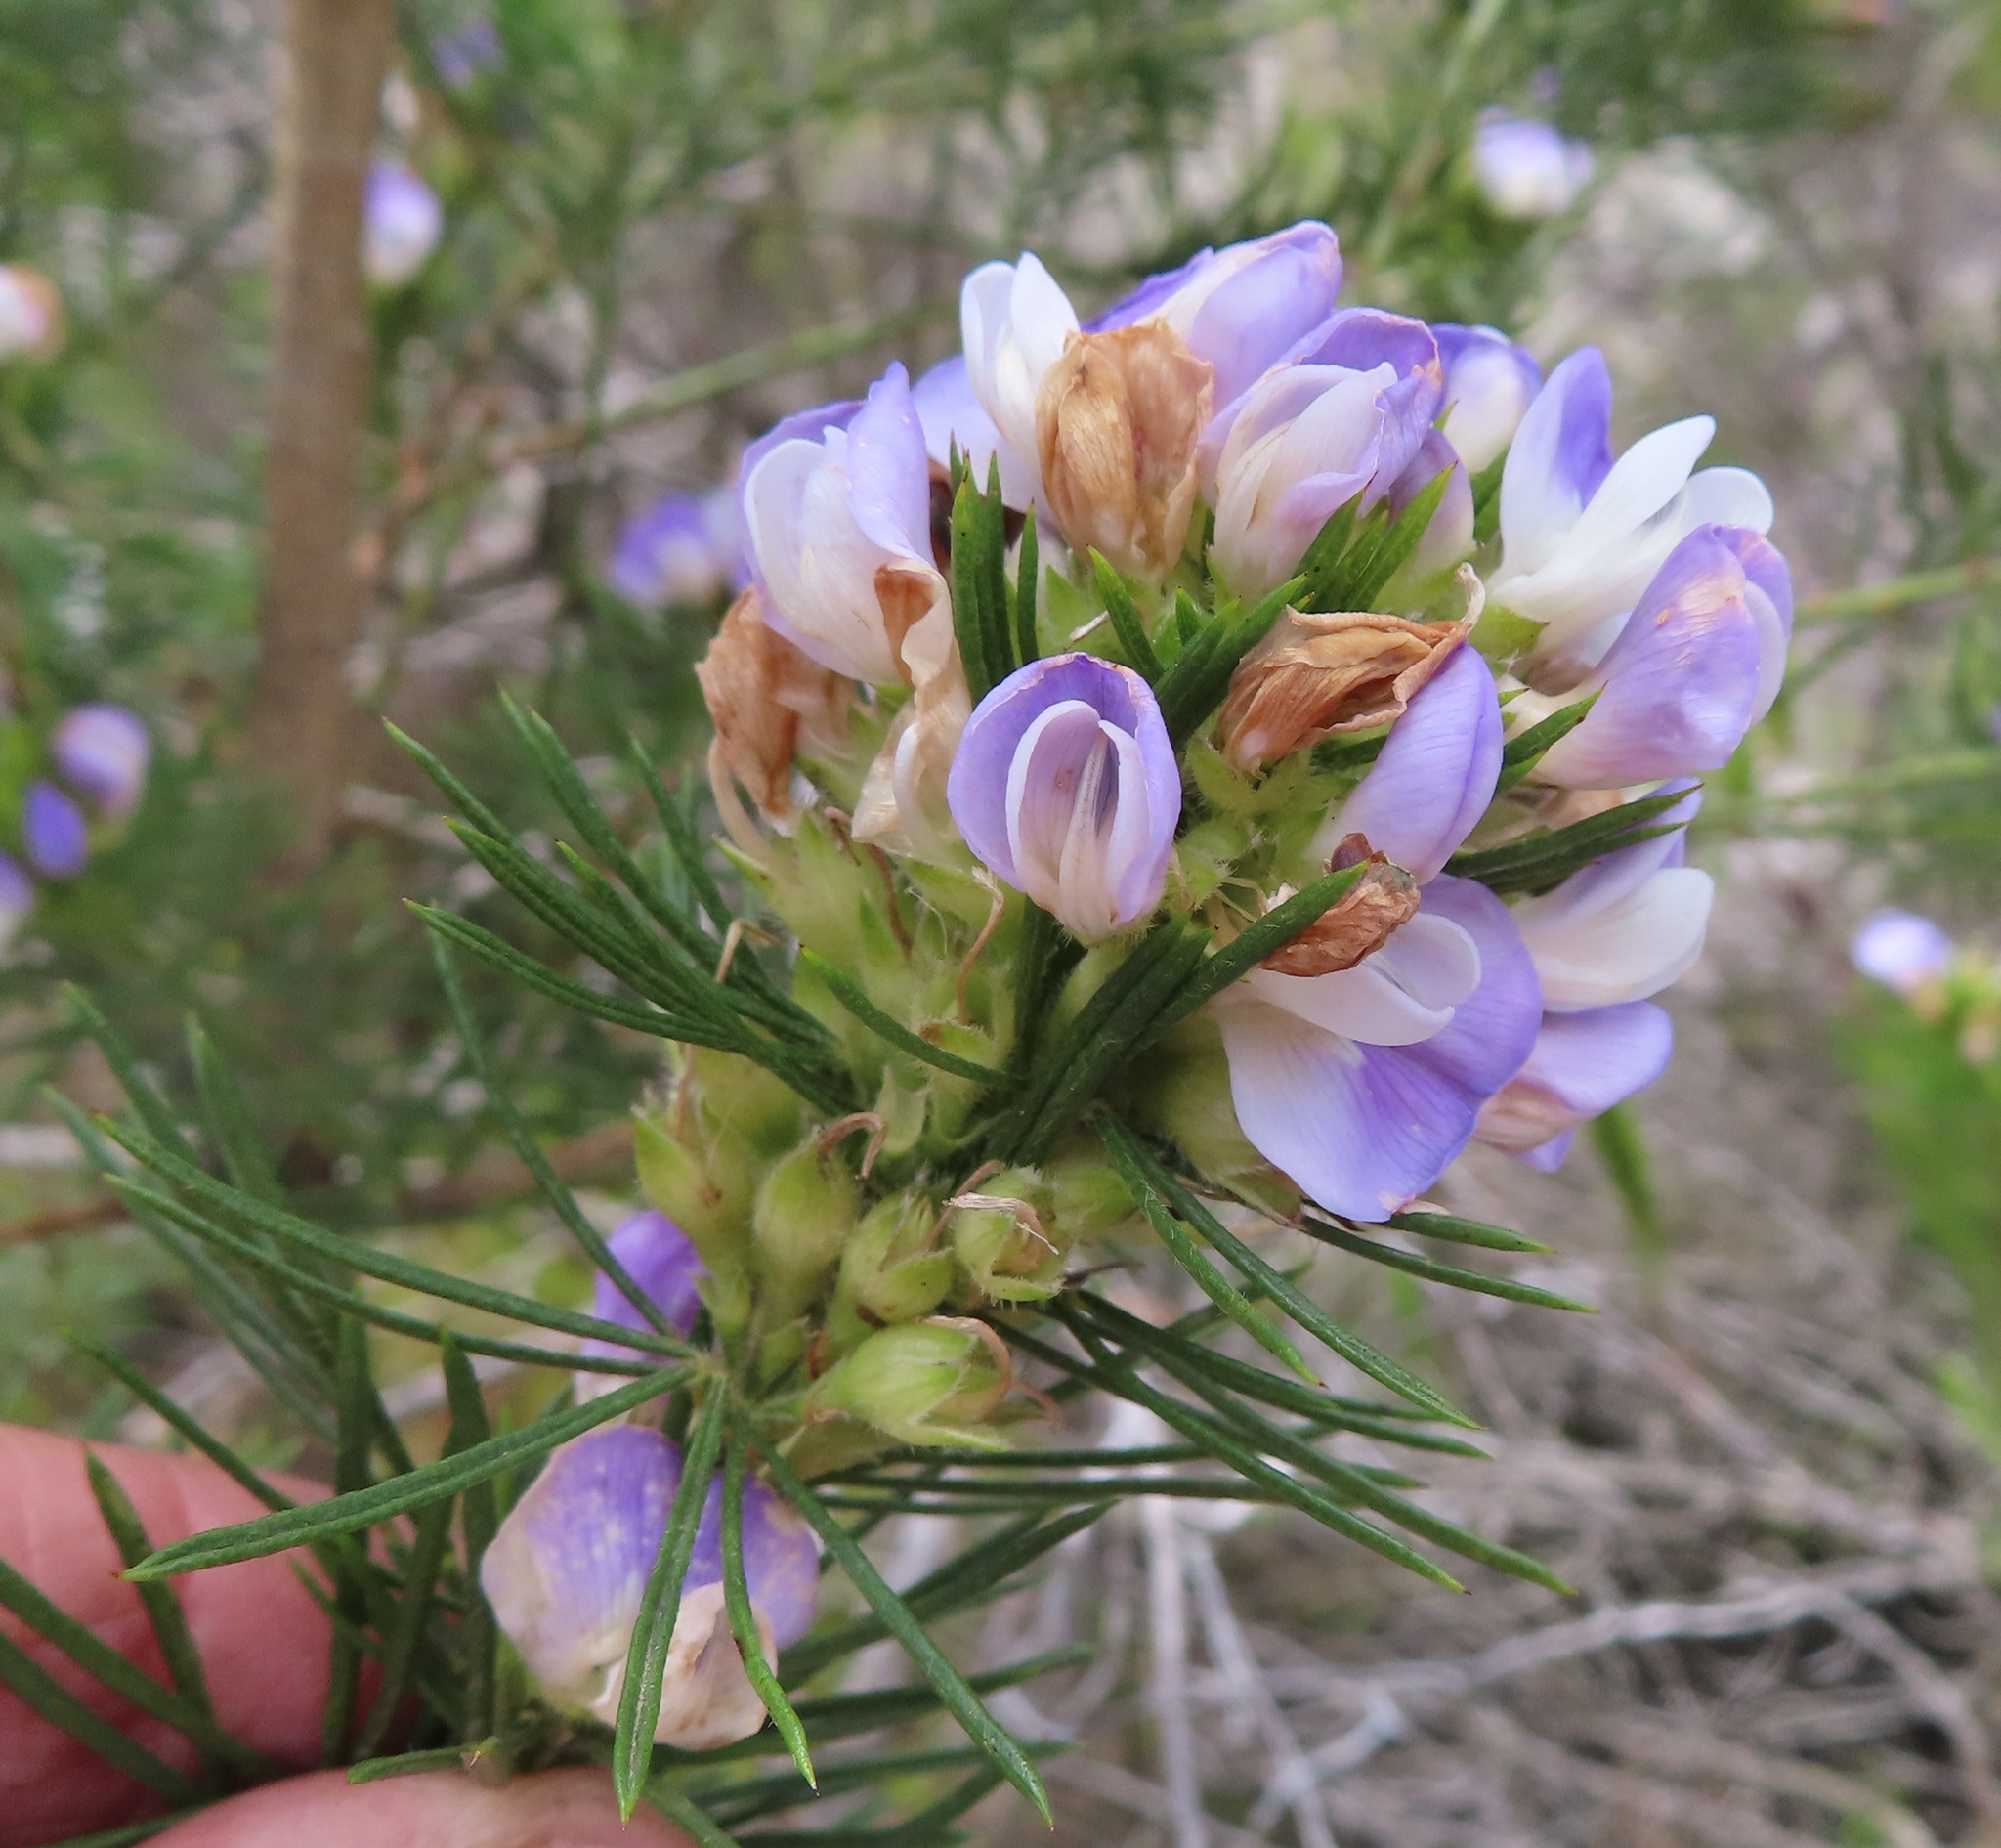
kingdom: Plantae
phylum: Tracheophyta
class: Magnoliopsida
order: Fabales
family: Fabaceae
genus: Psoralea
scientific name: Psoralea pinnata
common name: African scurfpea
